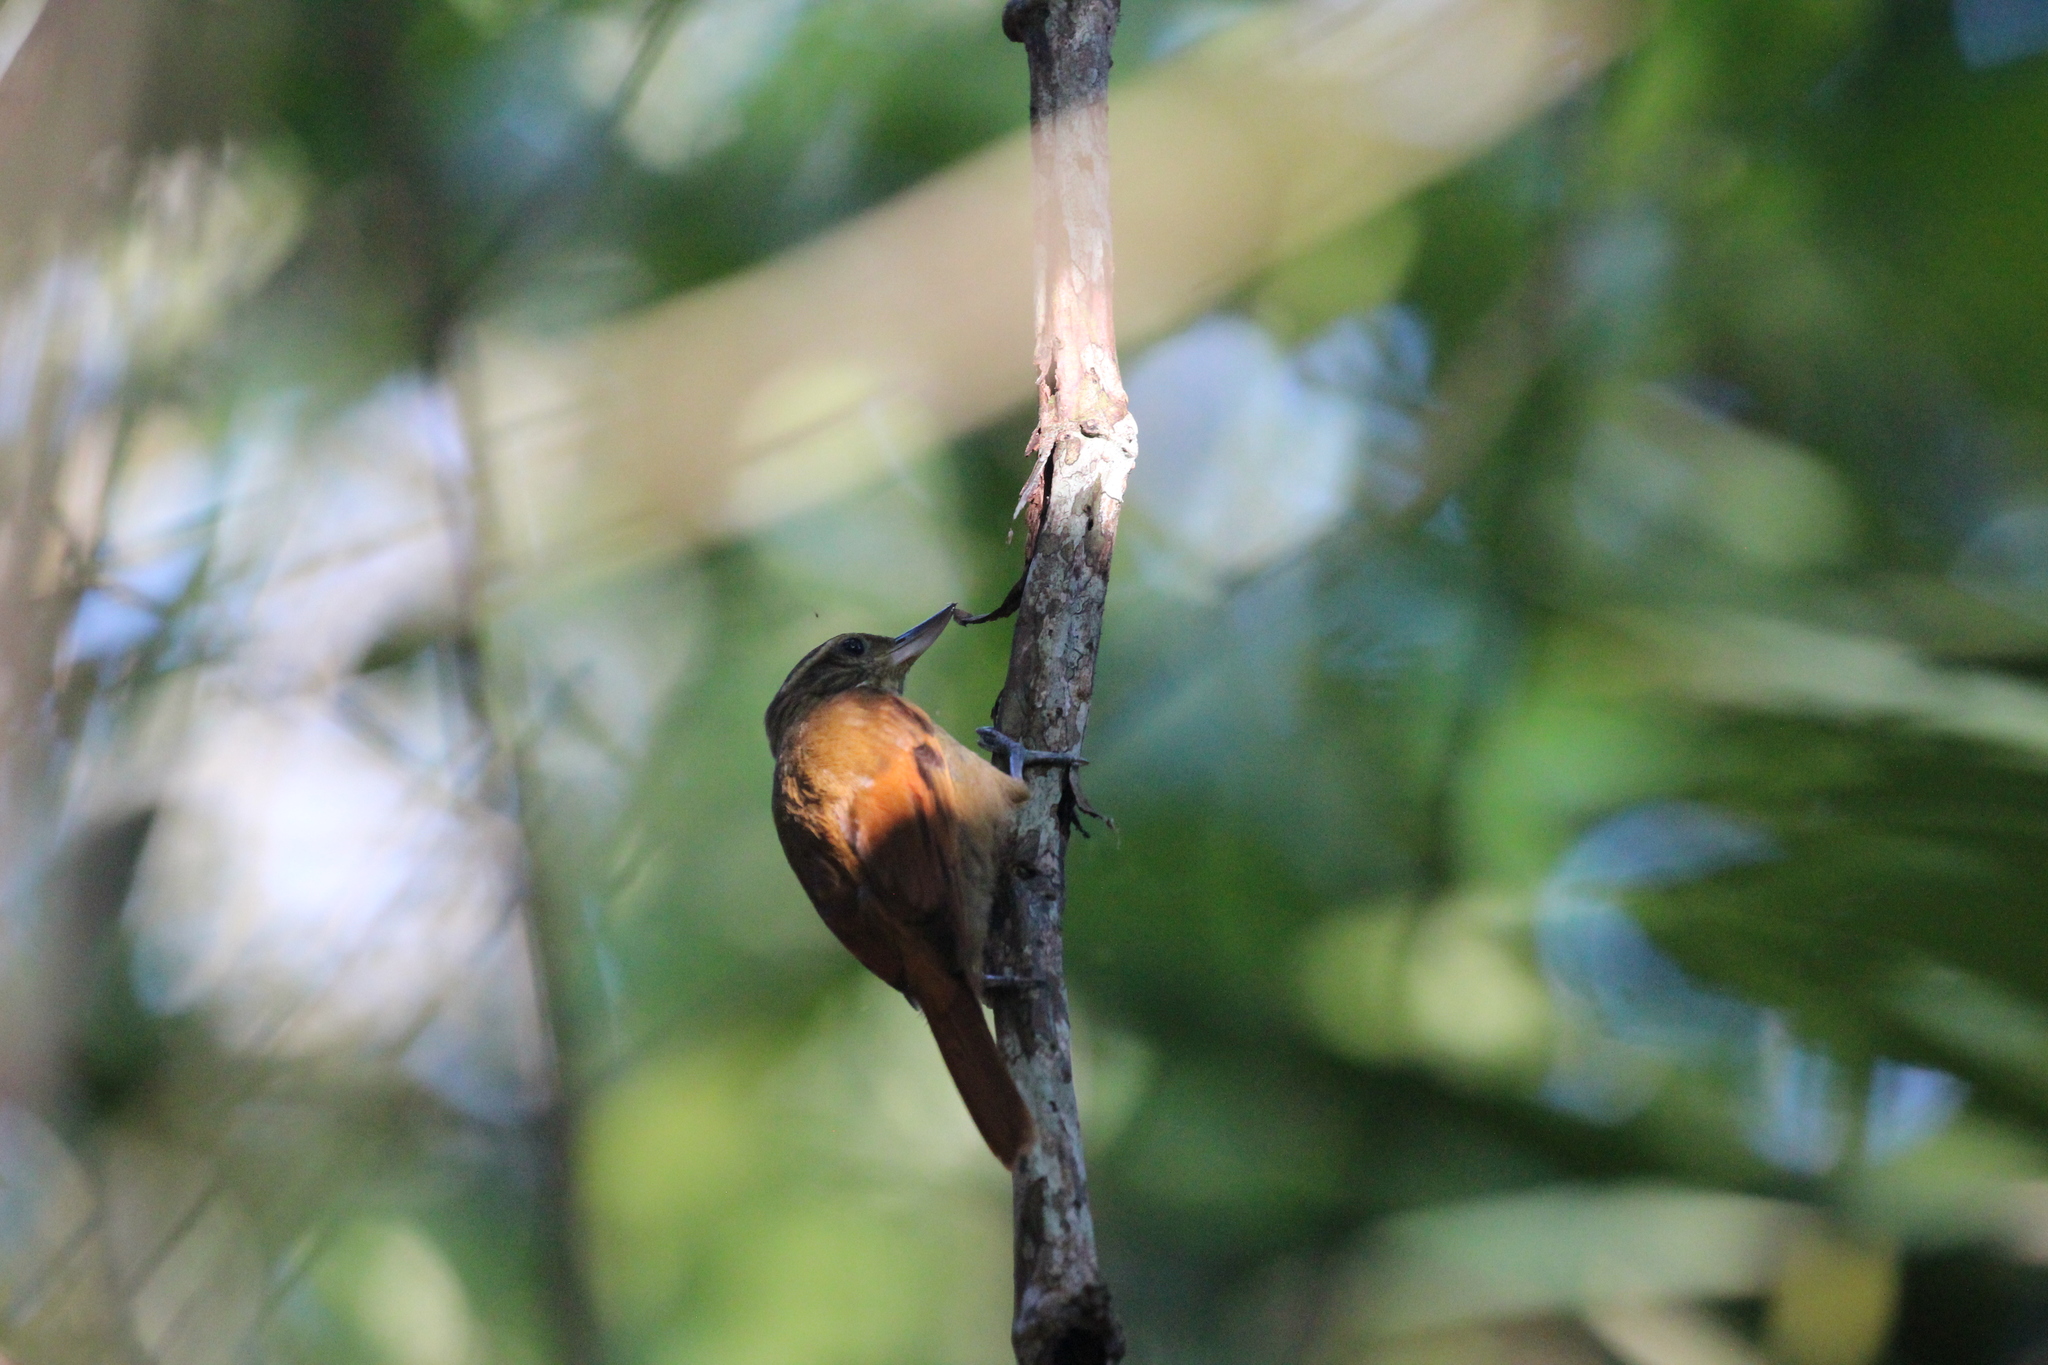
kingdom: Animalia
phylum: Chordata
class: Aves
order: Passeriformes
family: Furnariidae
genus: Xenops
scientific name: Xenops minutus
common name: Plain xenops
